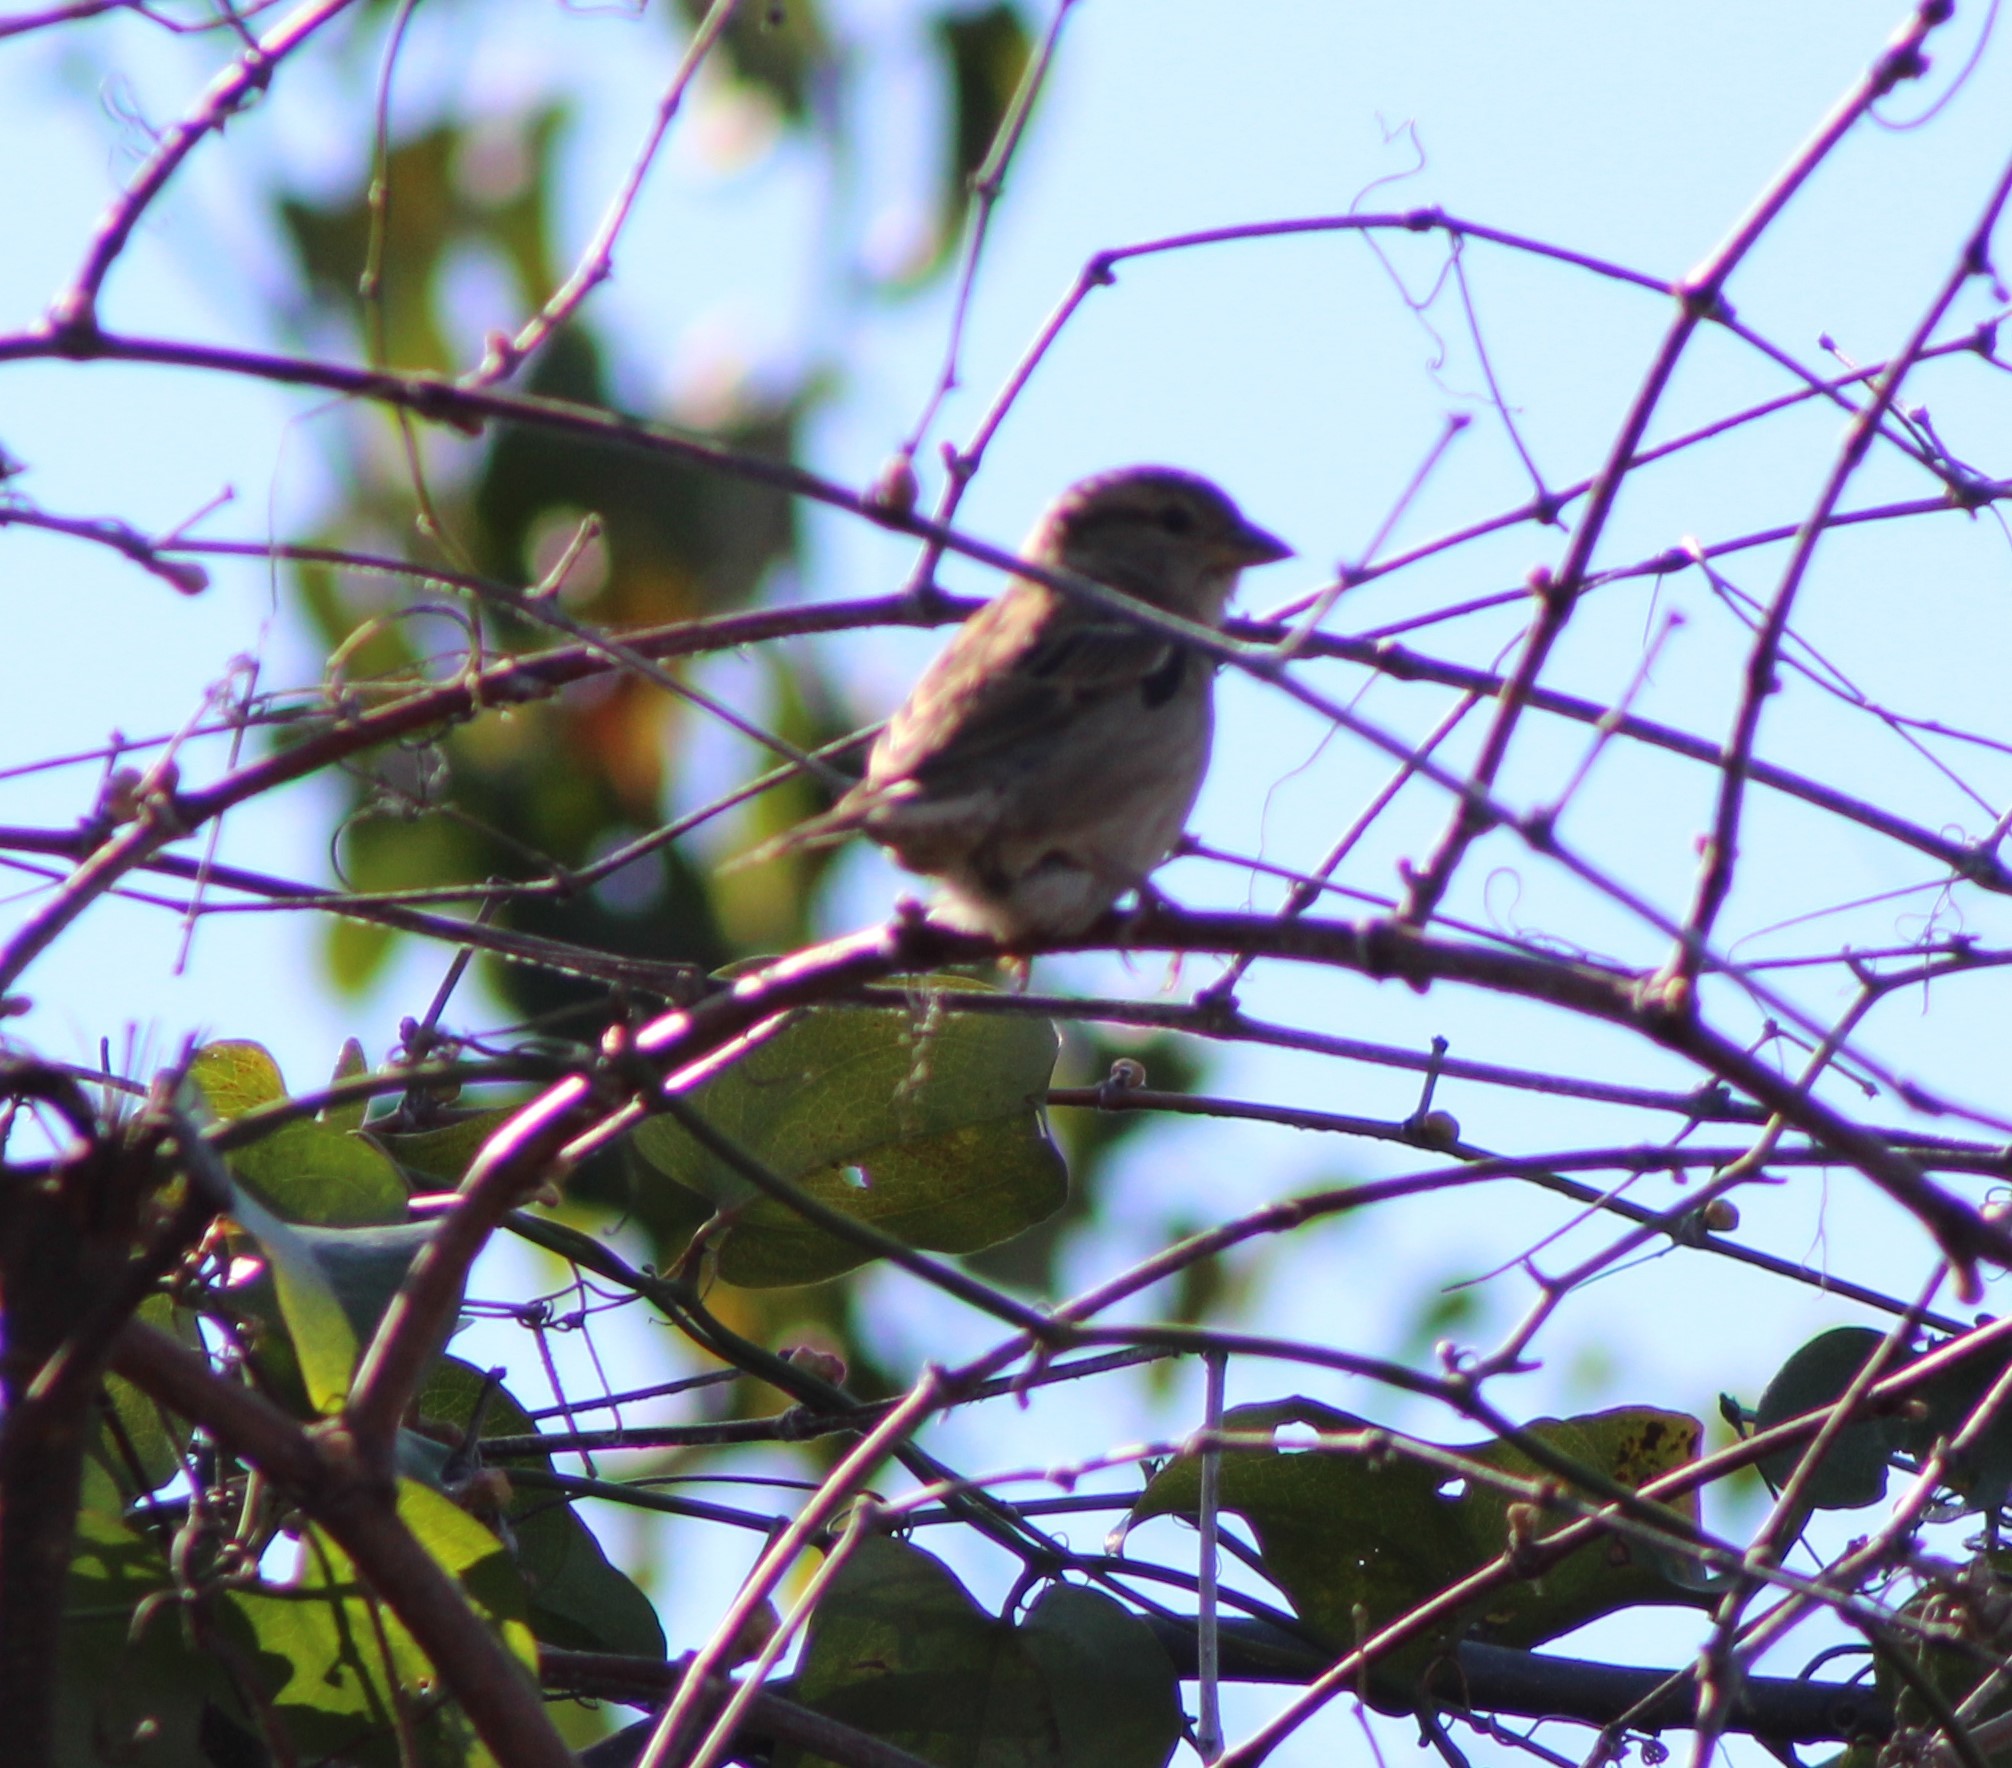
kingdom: Animalia
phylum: Chordata
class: Aves
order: Passeriformes
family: Passeridae
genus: Passer
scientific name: Passer domesticus
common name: House sparrow
